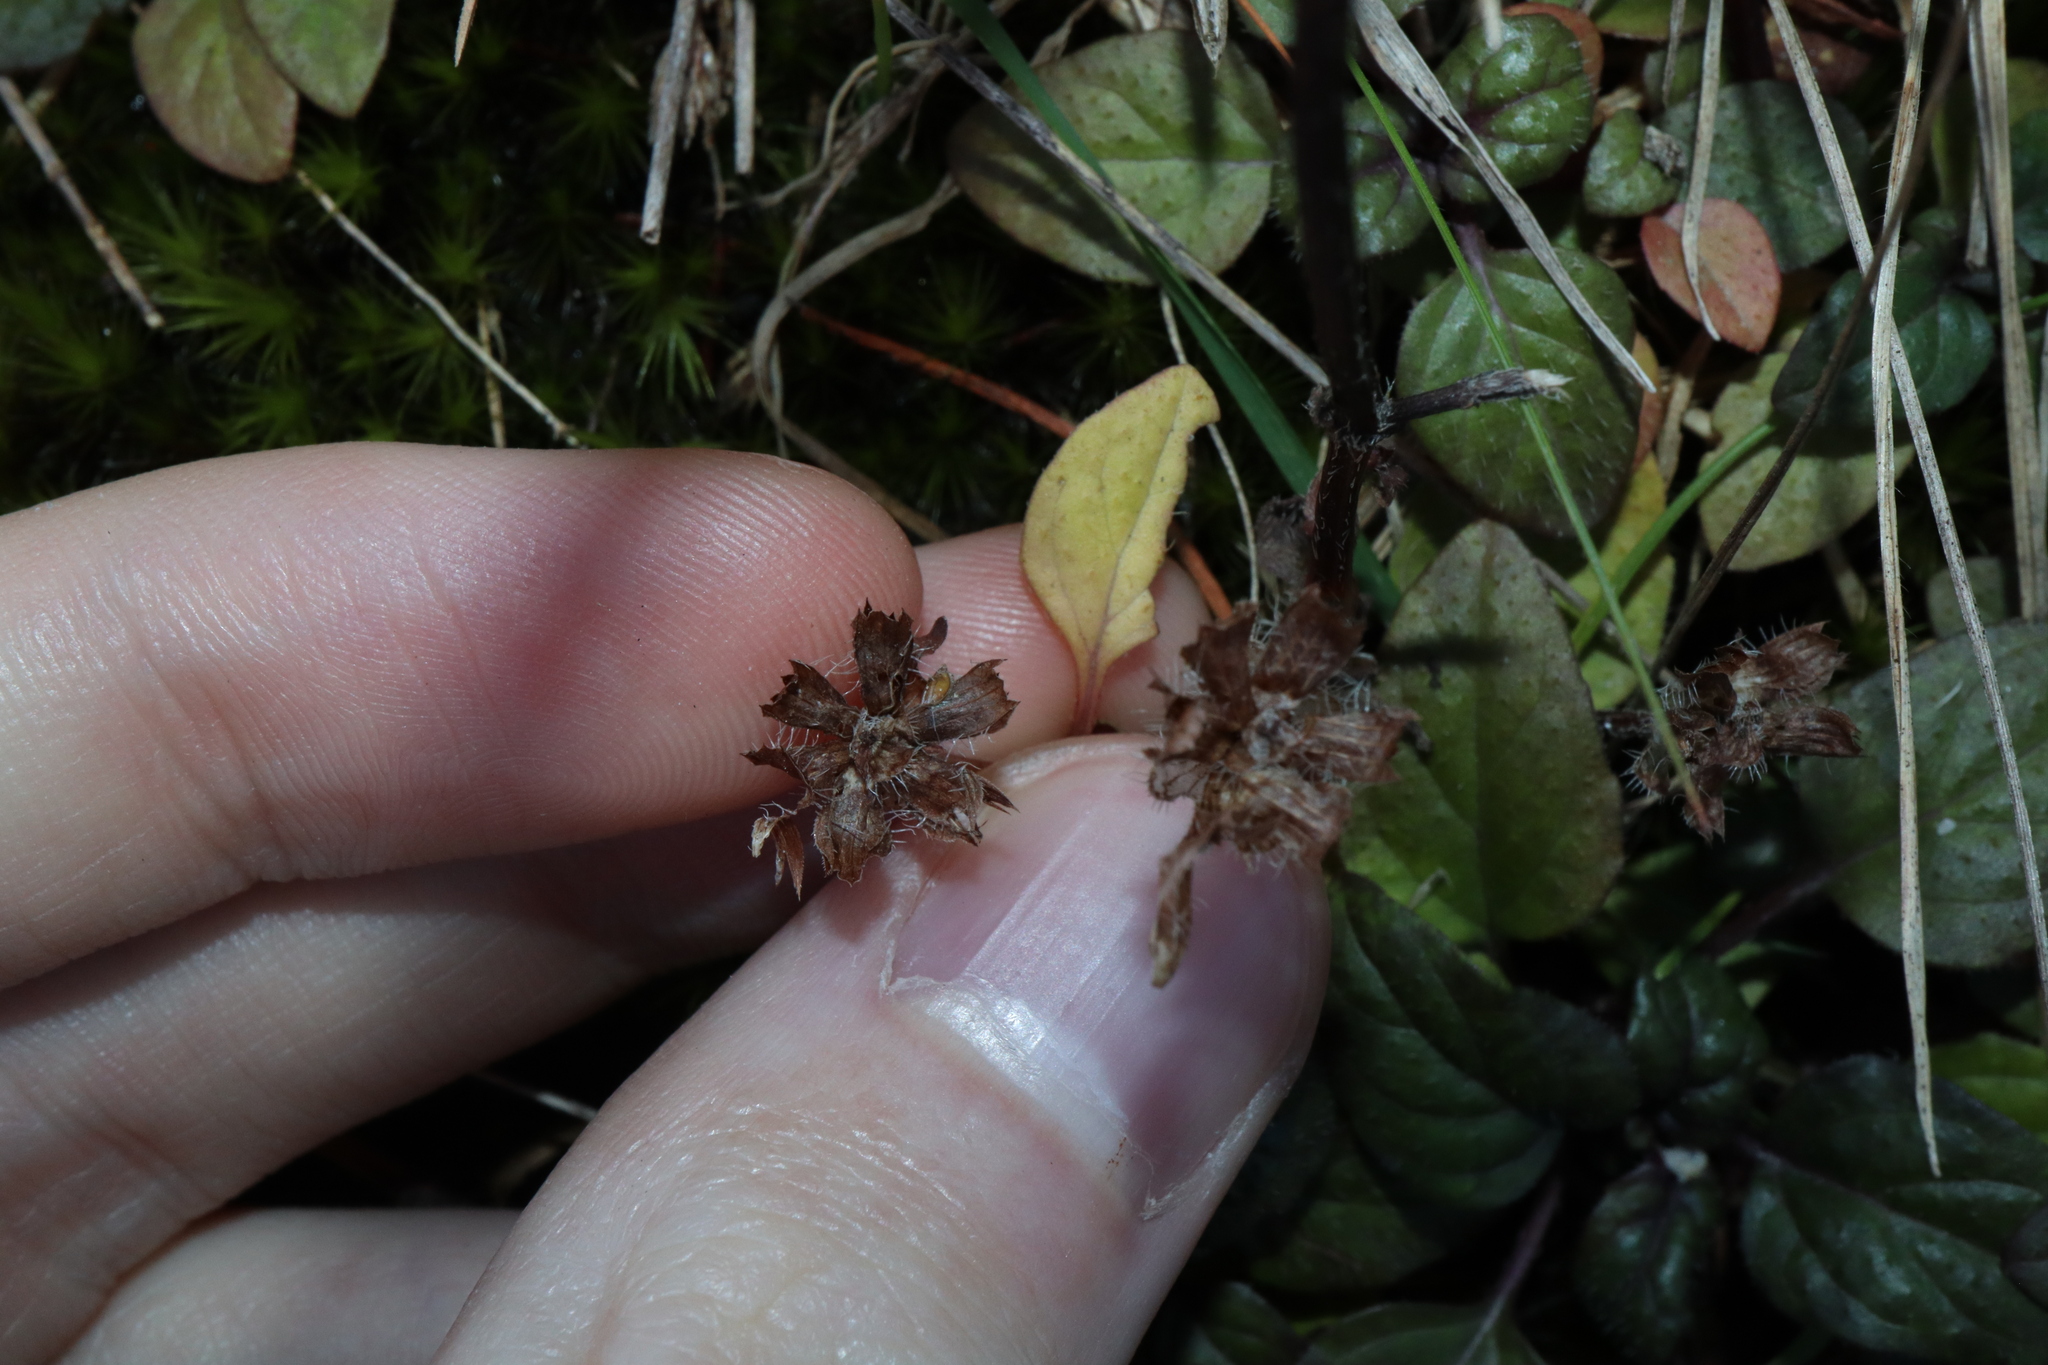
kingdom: Plantae
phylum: Tracheophyta
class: Magnoliopsida
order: Lamiales
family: Lamiaceae
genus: Prunella
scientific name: Prunella vulgaris
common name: Heal-all
